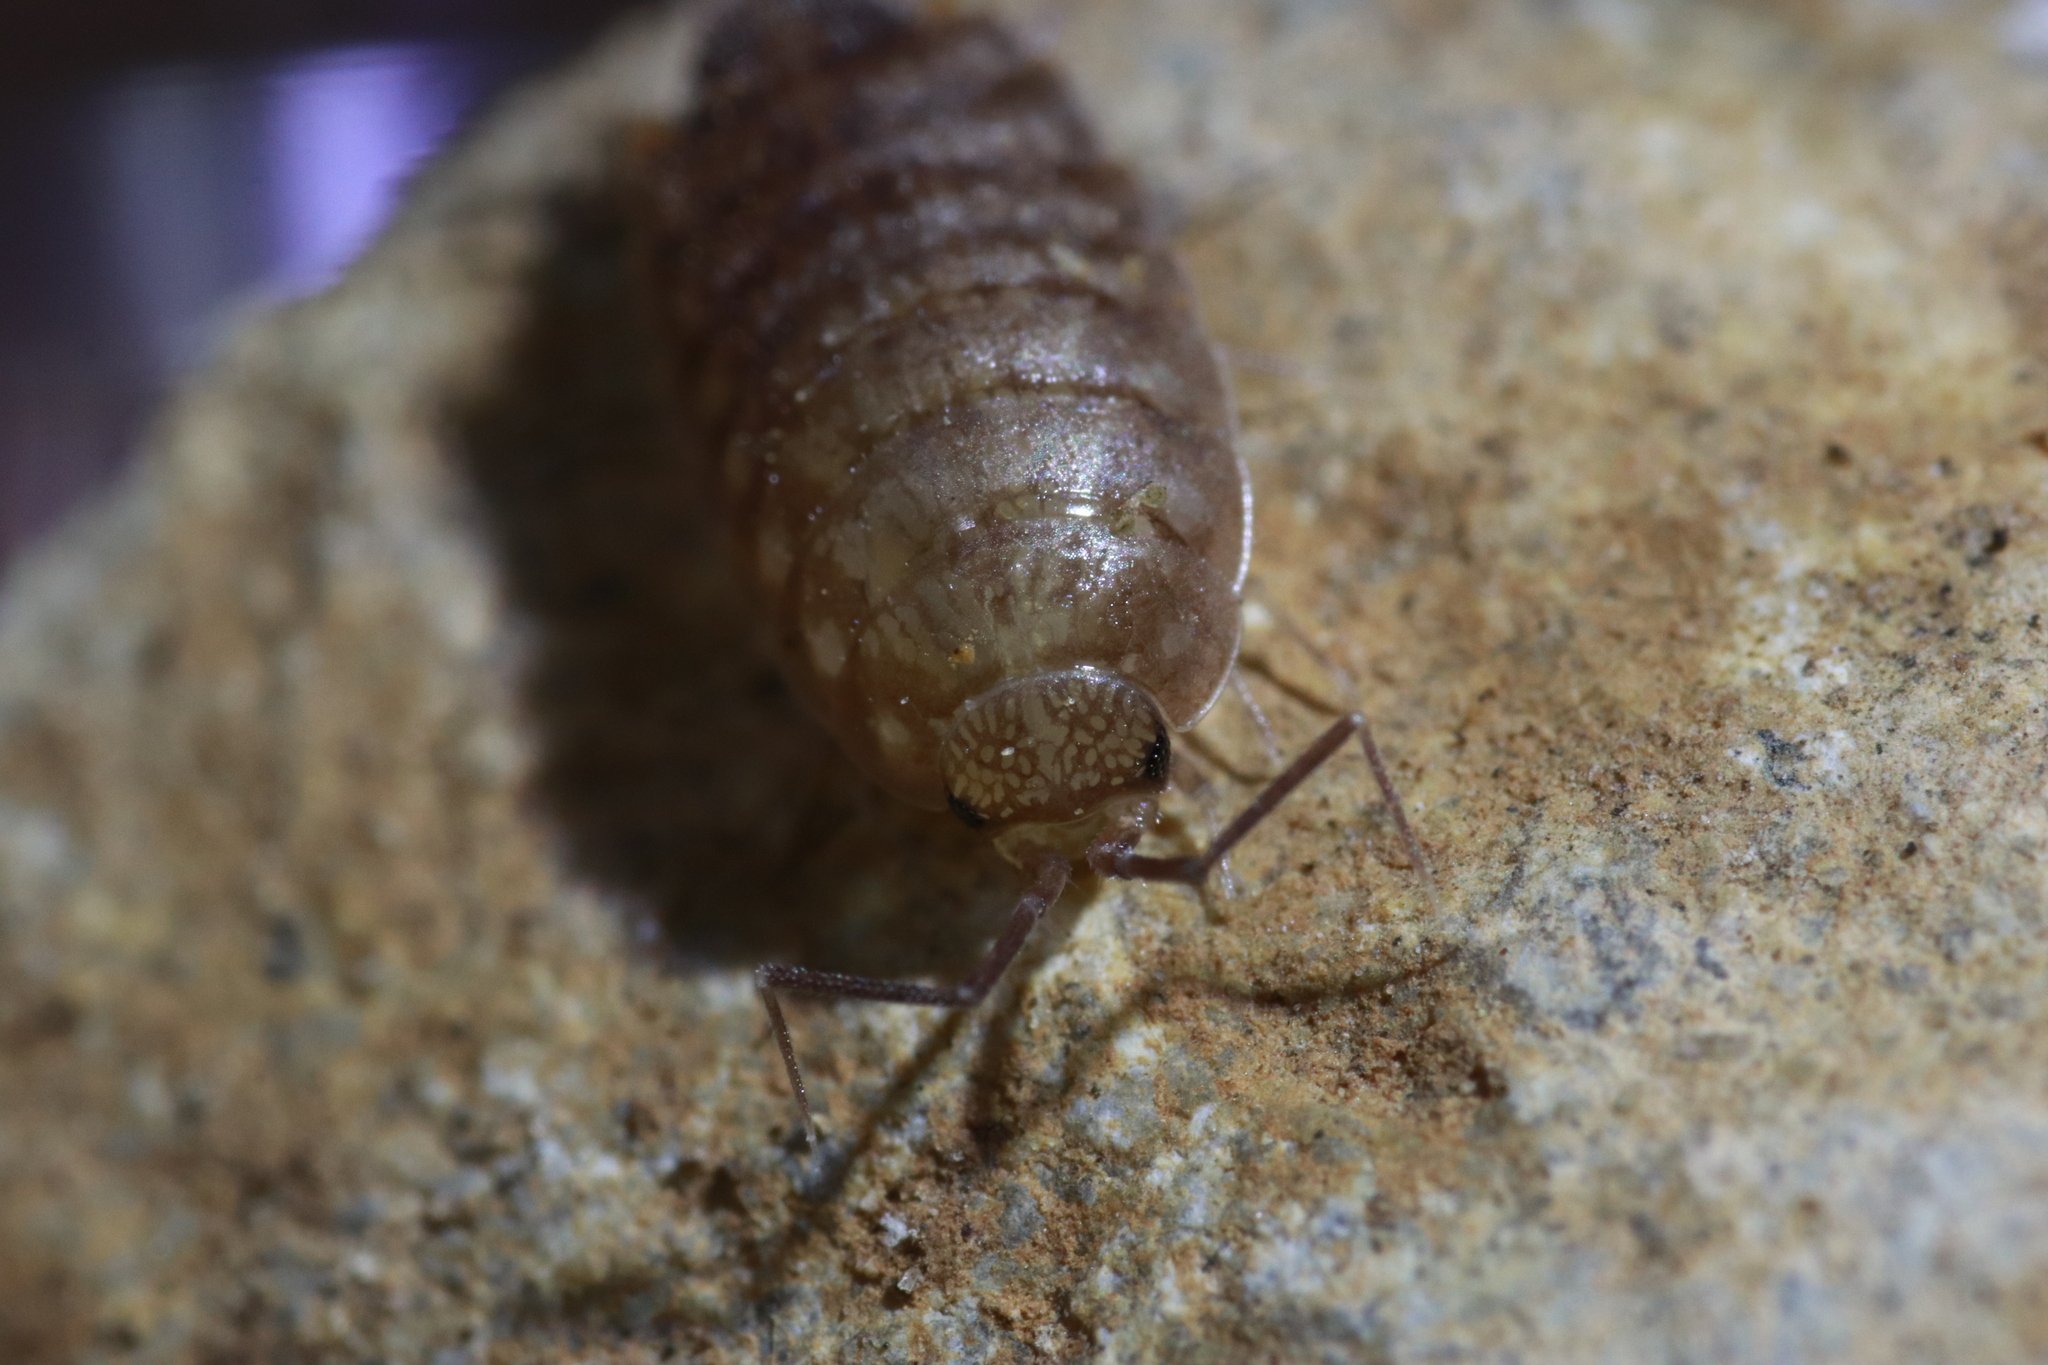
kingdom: Animalia
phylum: Arthropoda
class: Malacostraca
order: Isopoda
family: Philosciidae
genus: Chaetophiloscia
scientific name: Chaetophiloscia cellaria
